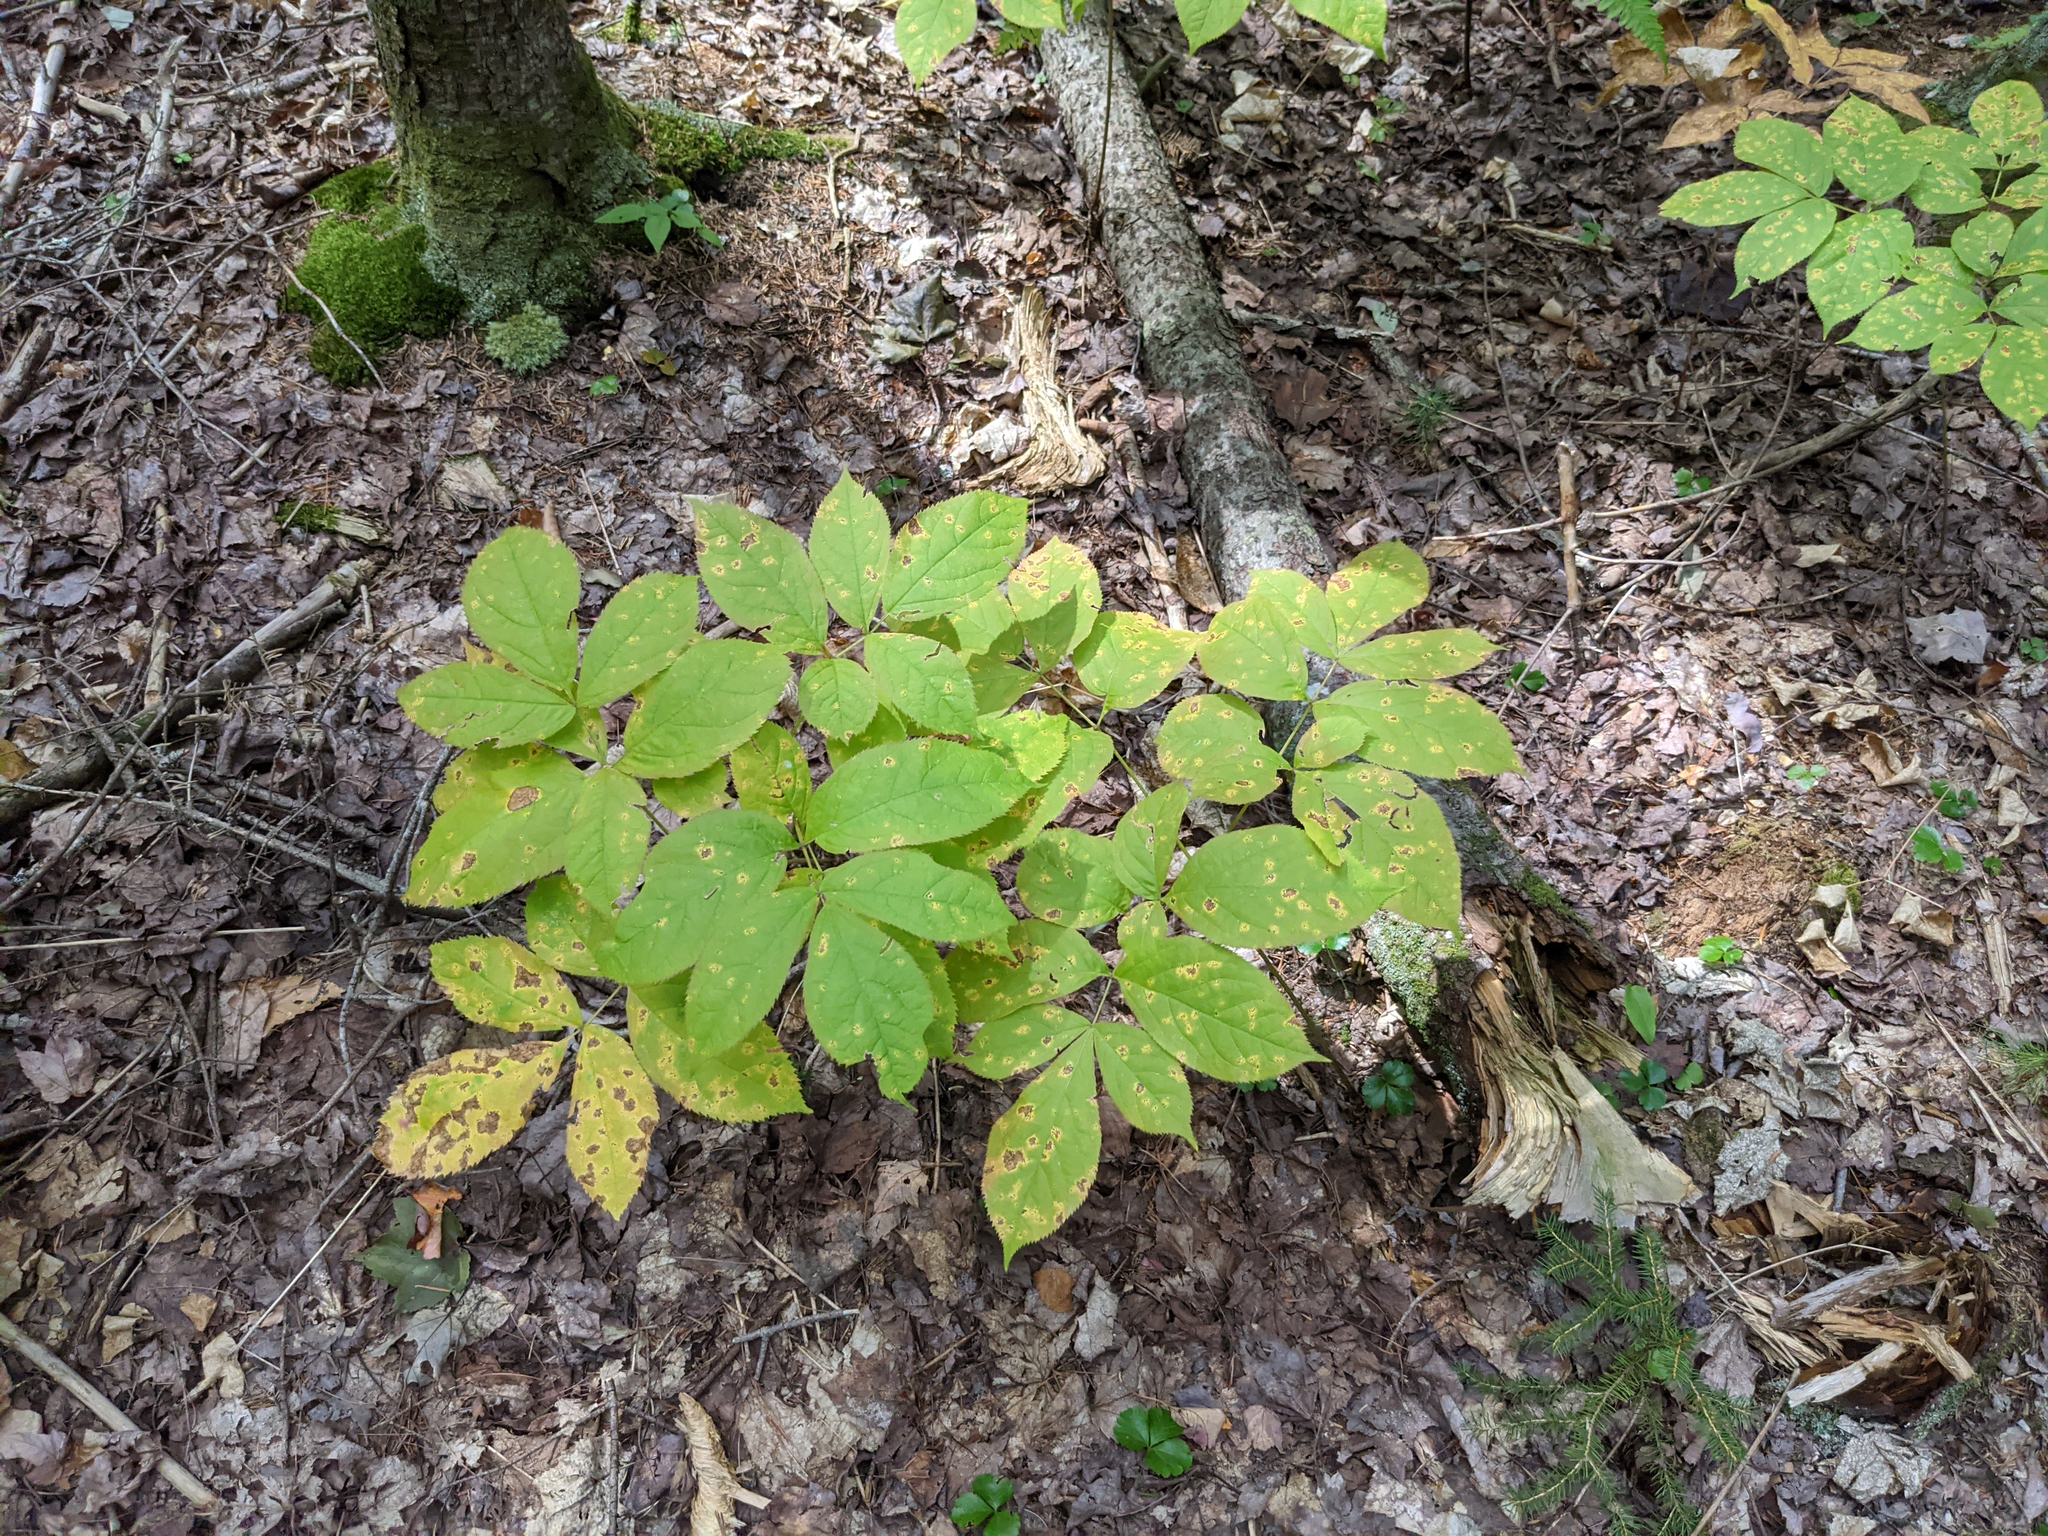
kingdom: Plantae
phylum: Tracheophyta
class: Magnoliopsida
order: Apiales
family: Araliaceae
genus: Aralia
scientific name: Aralia nudicaulis
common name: Wild sarsaparilla
